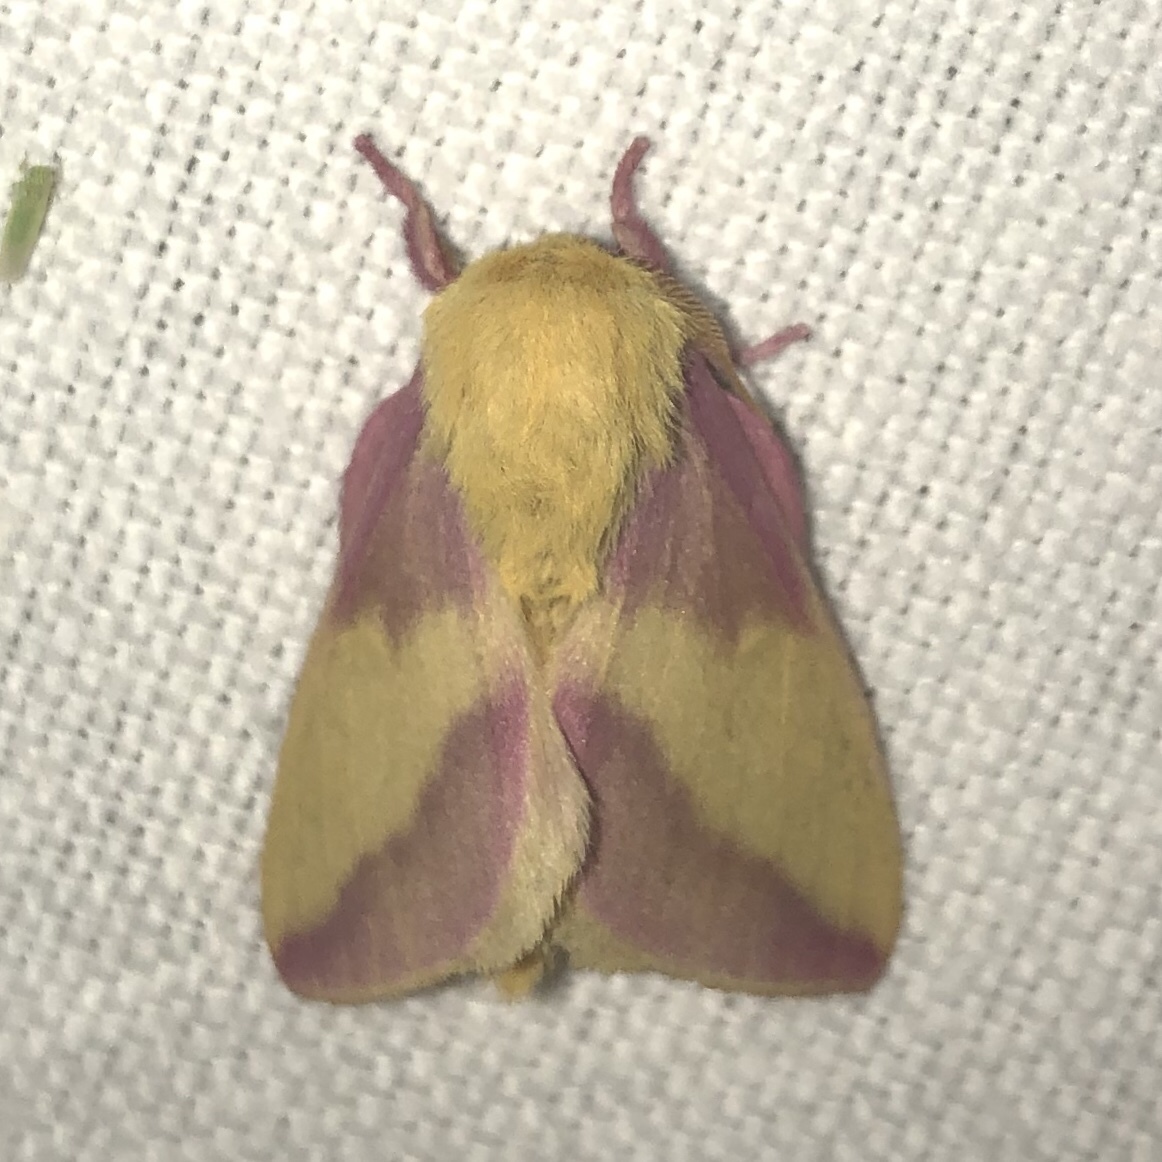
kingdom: Animalia
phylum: Arthropoda
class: Insecta
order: Lepidoptera
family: Saturniidae
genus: Dryocampa
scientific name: Dryocampa rubicunda
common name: Rosy maple moth
